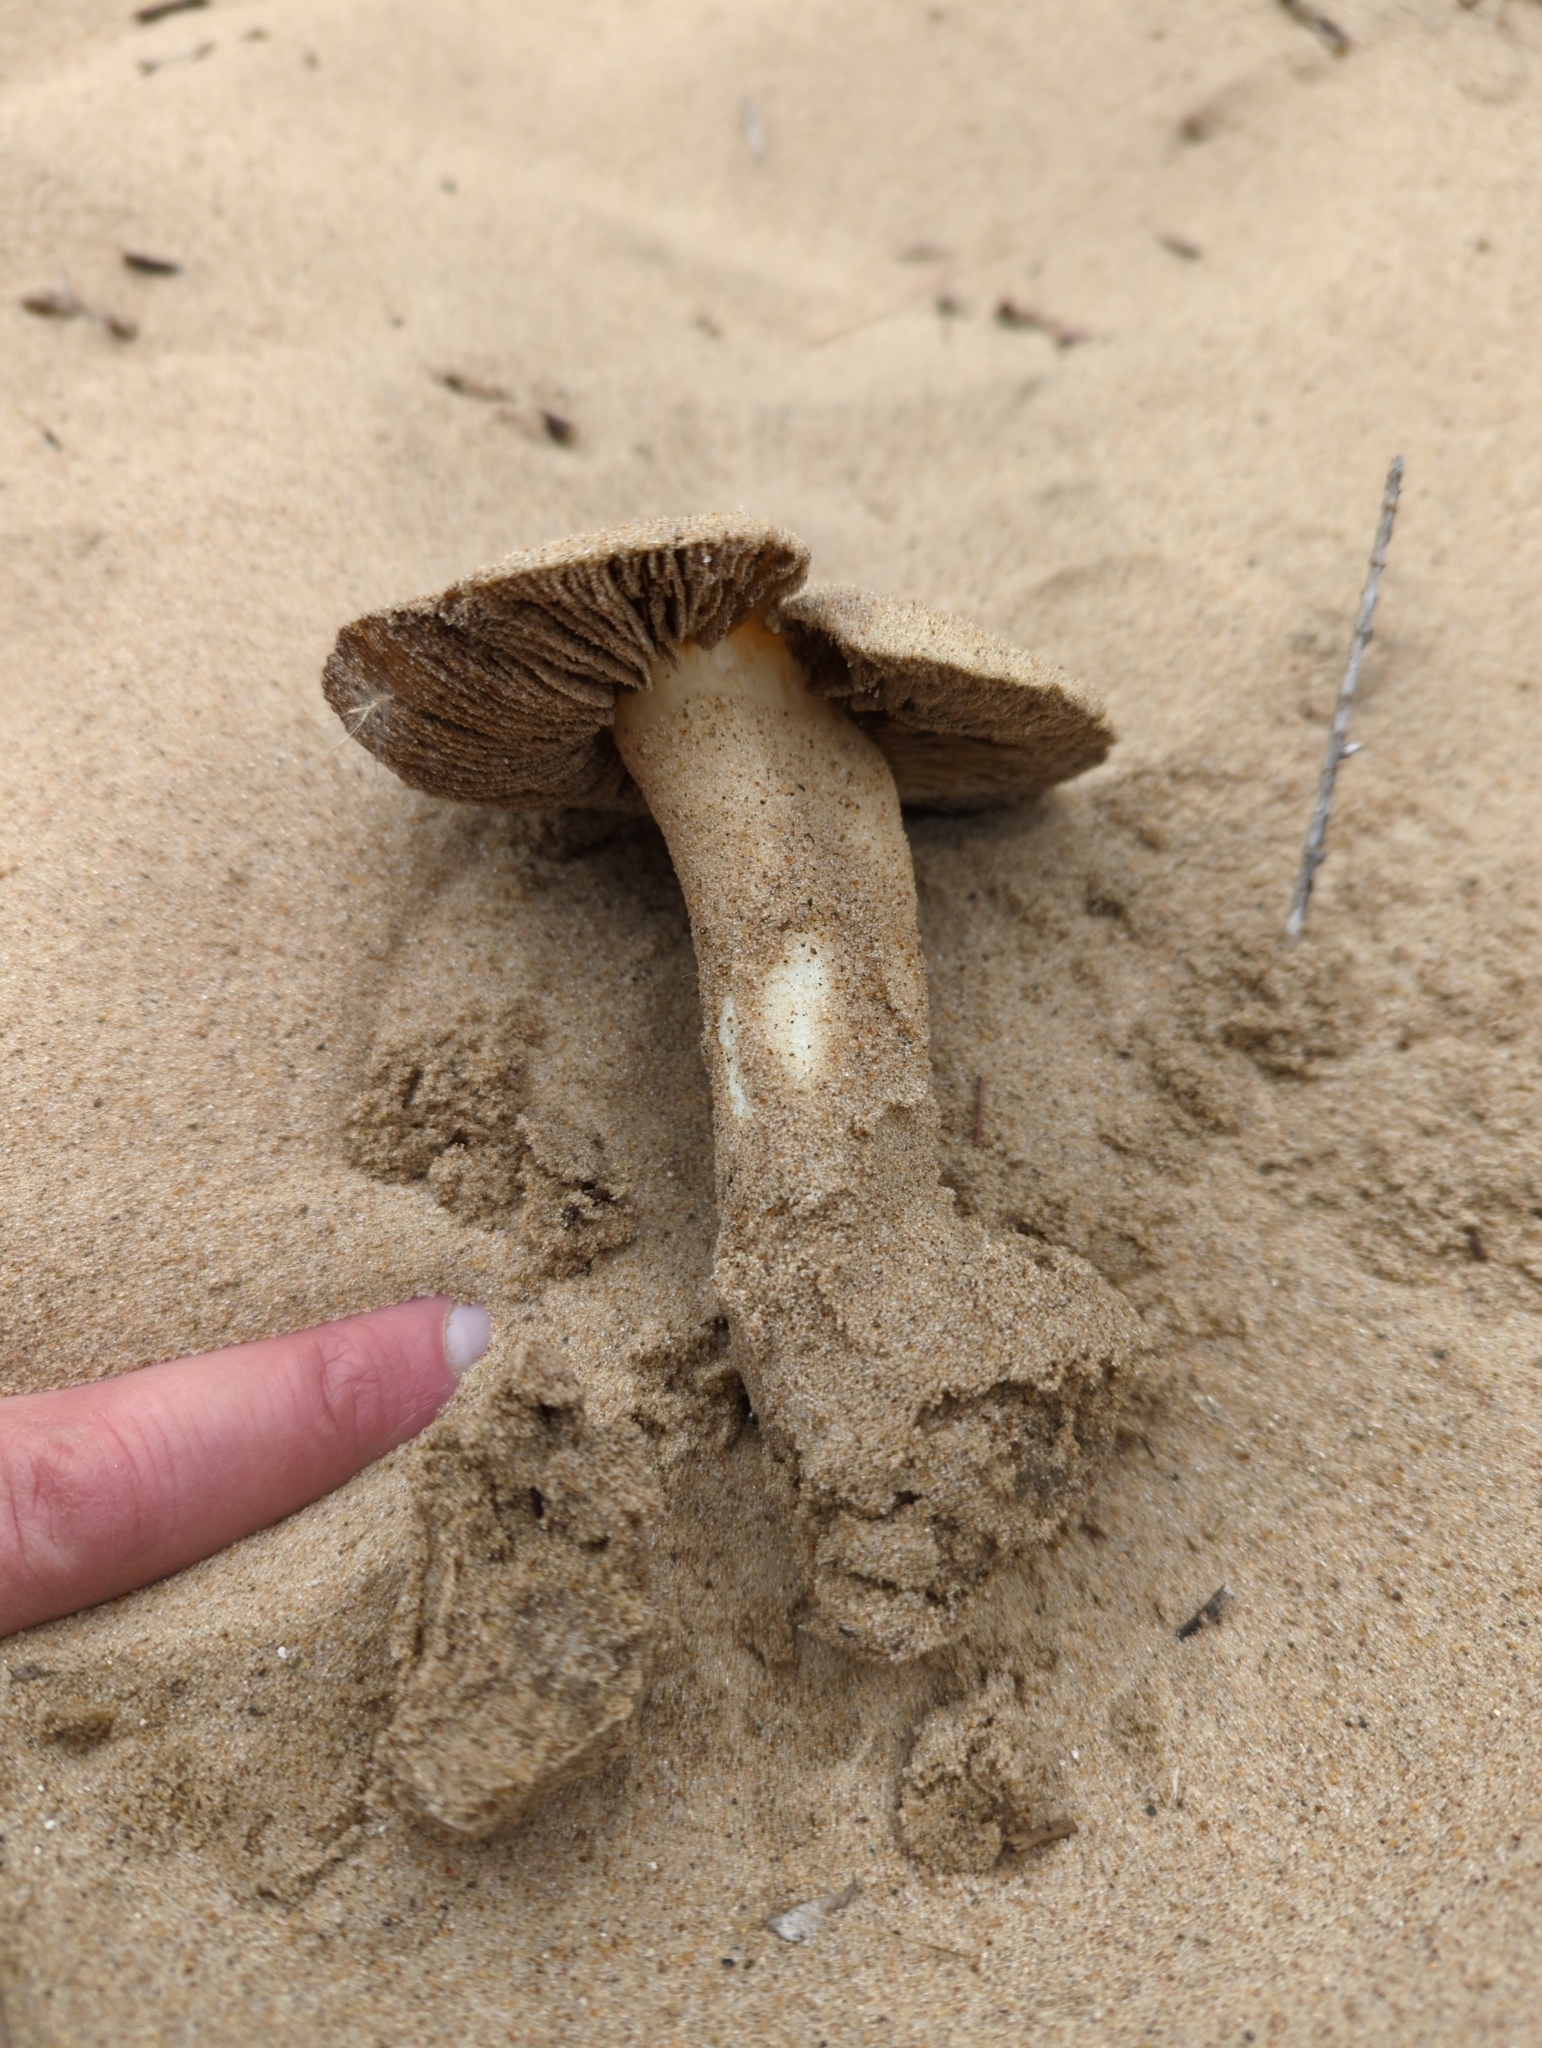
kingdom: Fungi
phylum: Basidiomycota
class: Agaricomycetes
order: Agaricales
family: Inocybaceae
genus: Inocybe
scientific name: Inocybe serotina
